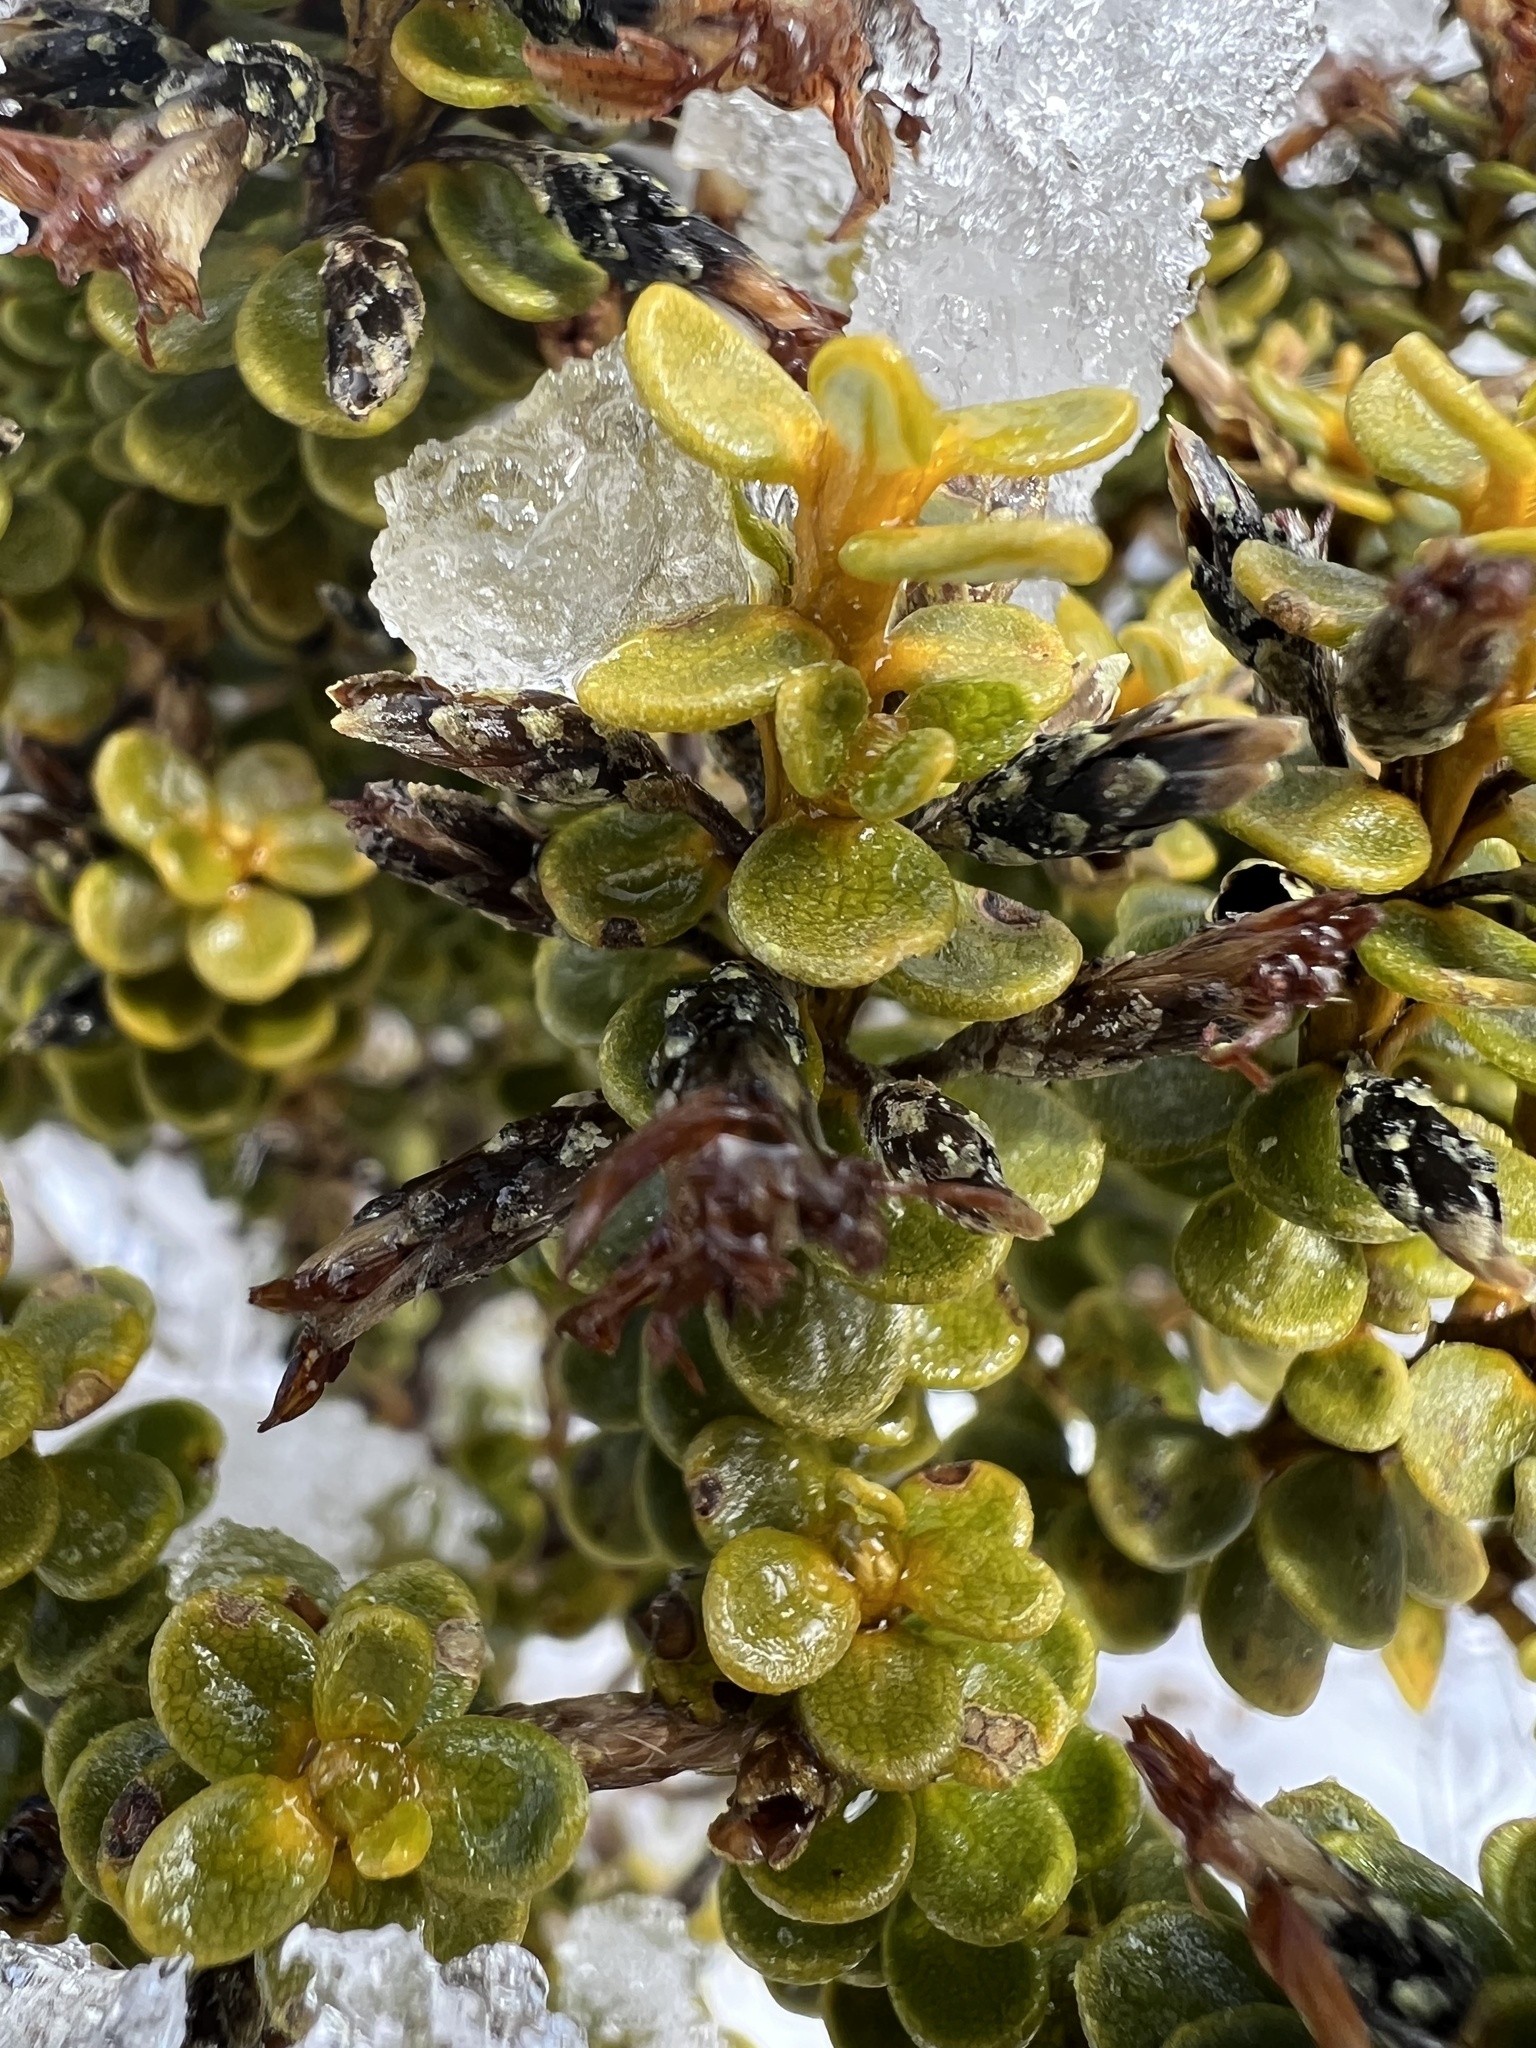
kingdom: Plantae
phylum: Tracheophyta
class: Magnoliopsida
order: Asterales
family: Asteraceae
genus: Olearia
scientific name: Olearia nummularifolia
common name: Sticky daisybush
